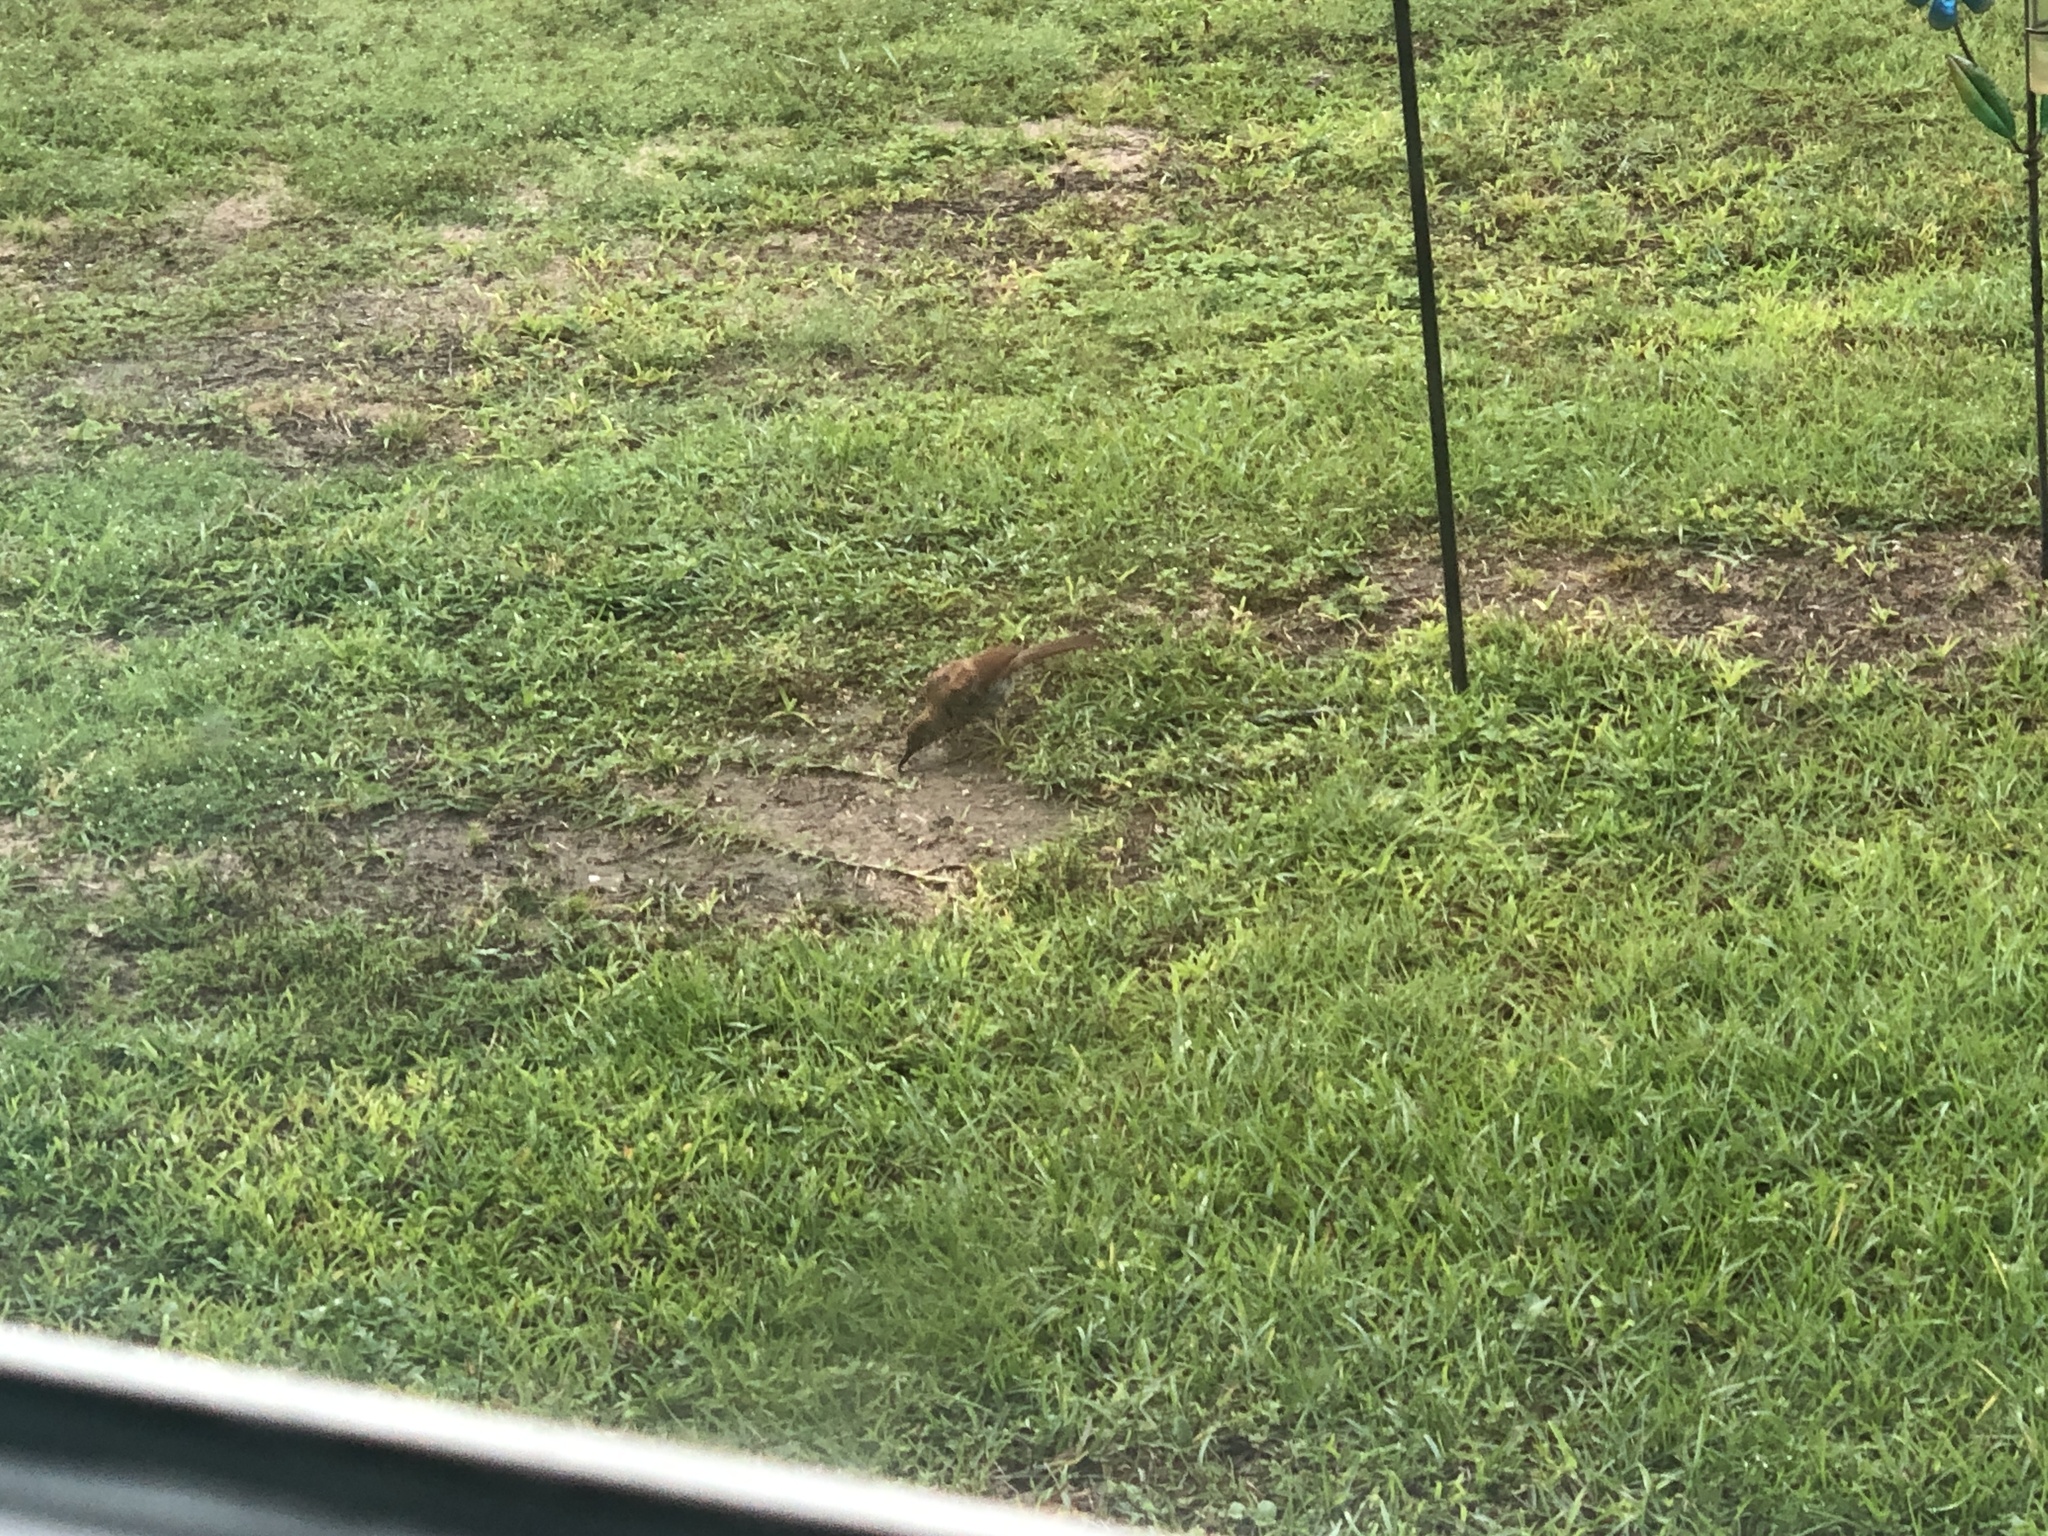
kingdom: Animalia
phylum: Chordata
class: Aves
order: Passeriformes
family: Mimidae
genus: Toxostoma
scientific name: Toxostoma rufum
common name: Brown thrasher
